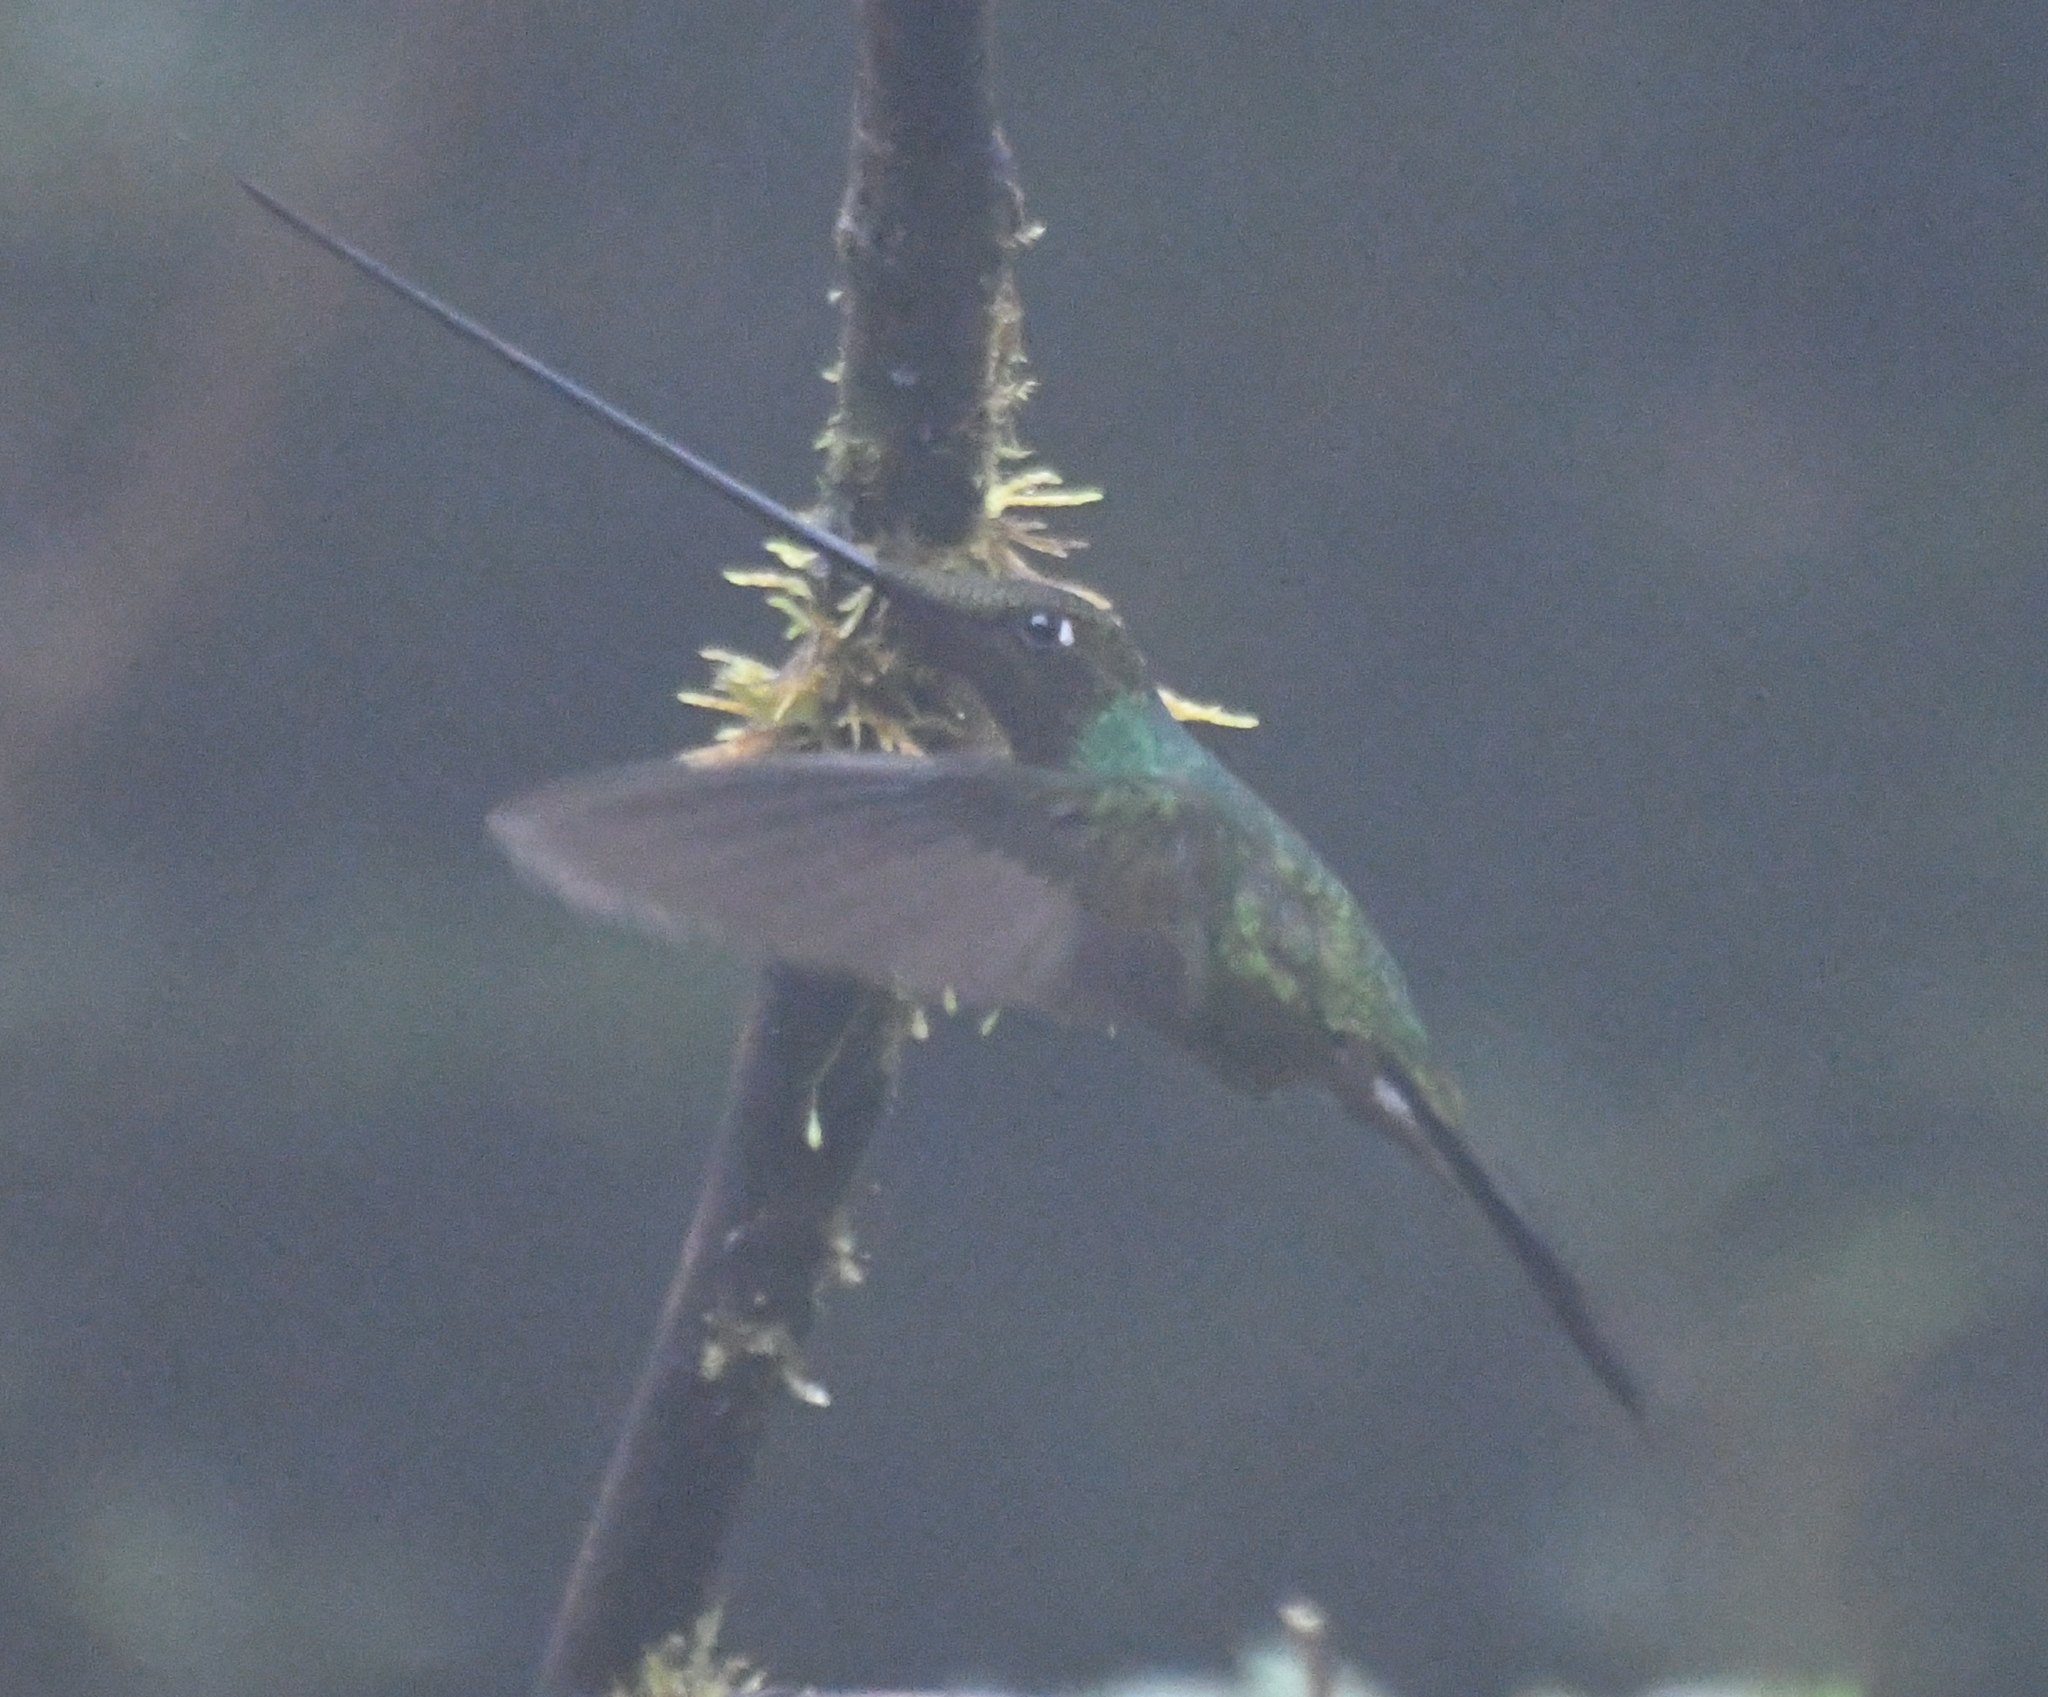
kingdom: Animalia
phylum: Chordata
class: Aves
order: Apodiformes
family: Trochilidae
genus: Ensifera
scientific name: Ensifera ensifera
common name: Sword-billed hummingbird
